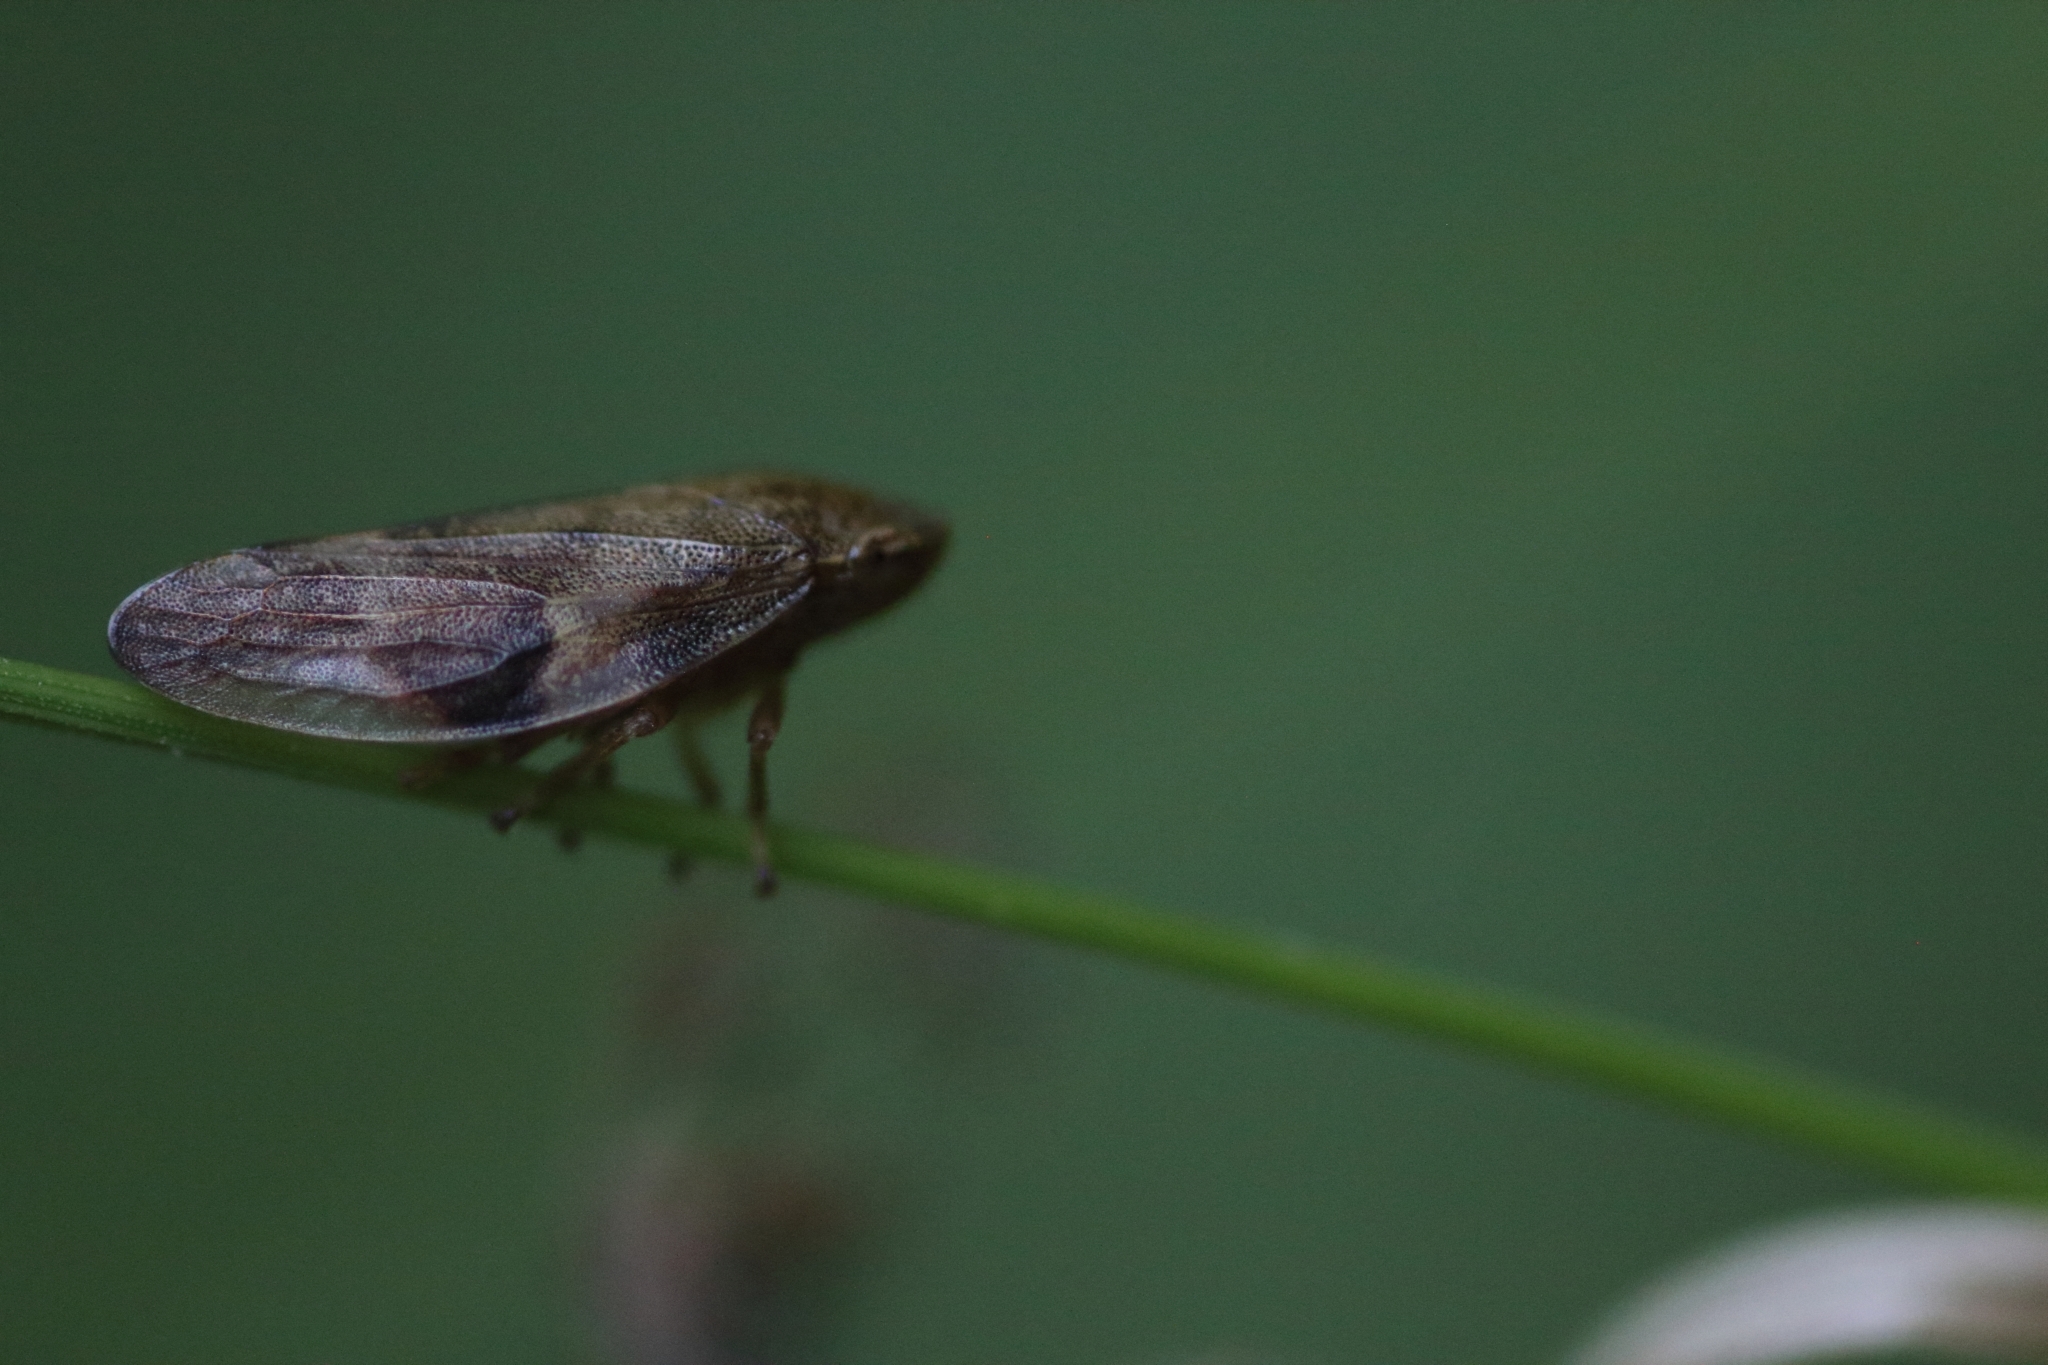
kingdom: Animalia
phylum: Arthropoda
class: Insecta
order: Hemiptera
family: Aphrophoridae
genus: Aphrophora
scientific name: Aphrophora alni
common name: European alder spittlebug
